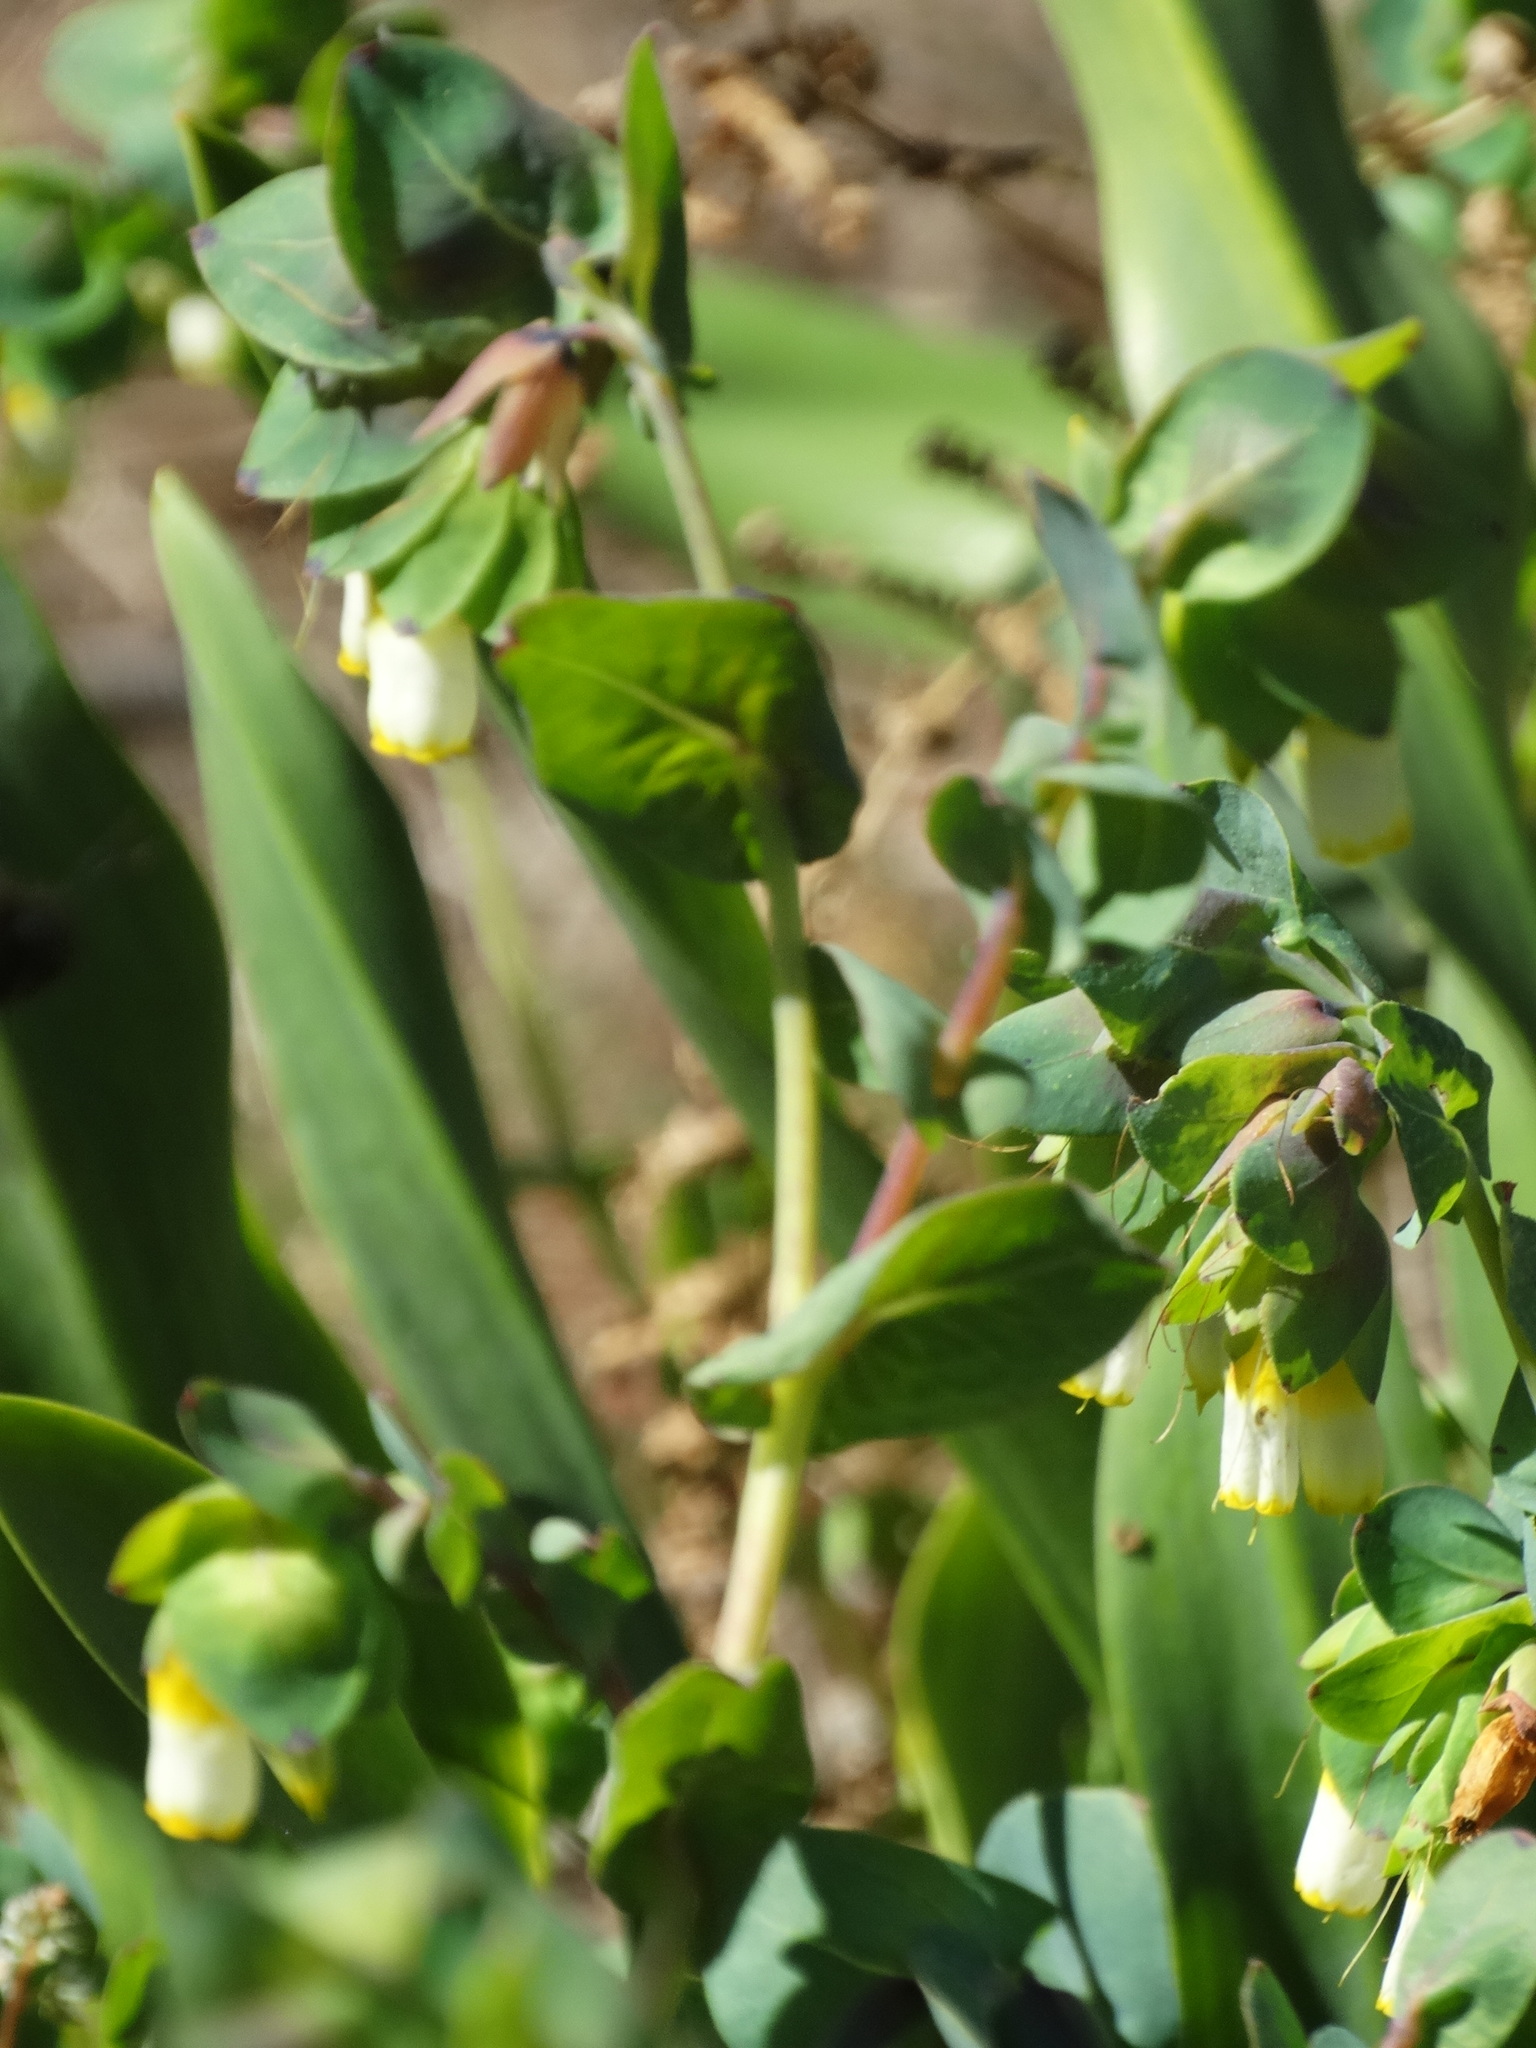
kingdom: Plantae
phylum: Tracheophyta
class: Magnoliopsida
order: Boraginales
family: Boraginaceae
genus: Cerinthe
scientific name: Cerinthe major
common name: Greater honeywort
